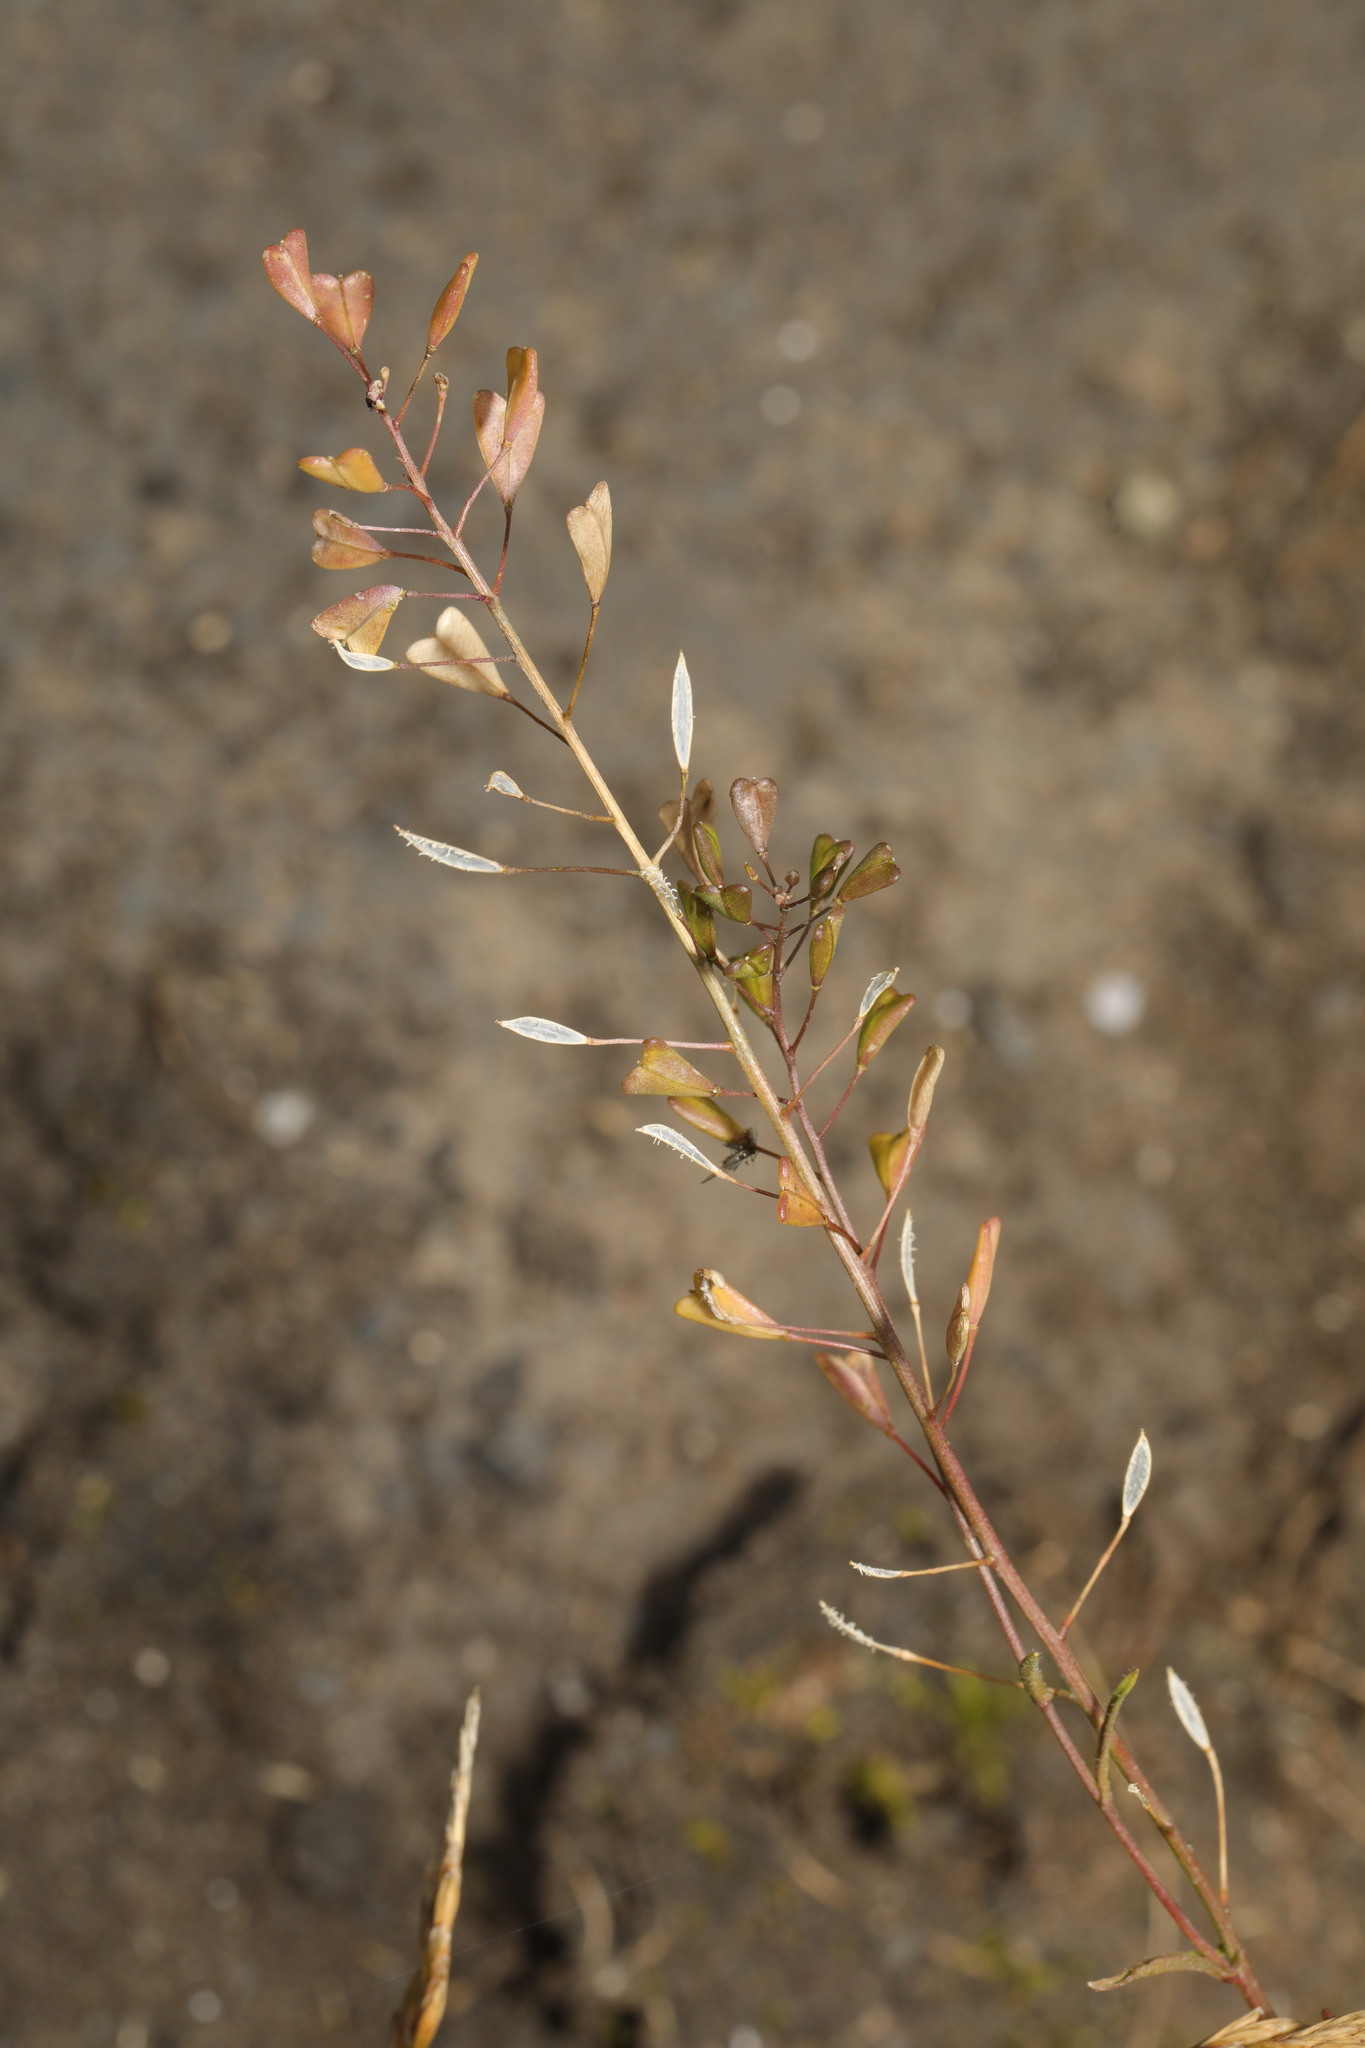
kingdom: Plantae
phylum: Tracheophyta
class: Magnoliopsida
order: Brassicales
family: Brassicaceae
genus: Capsella
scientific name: Capsella bursa-pastoris
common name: Shepherd's purse
